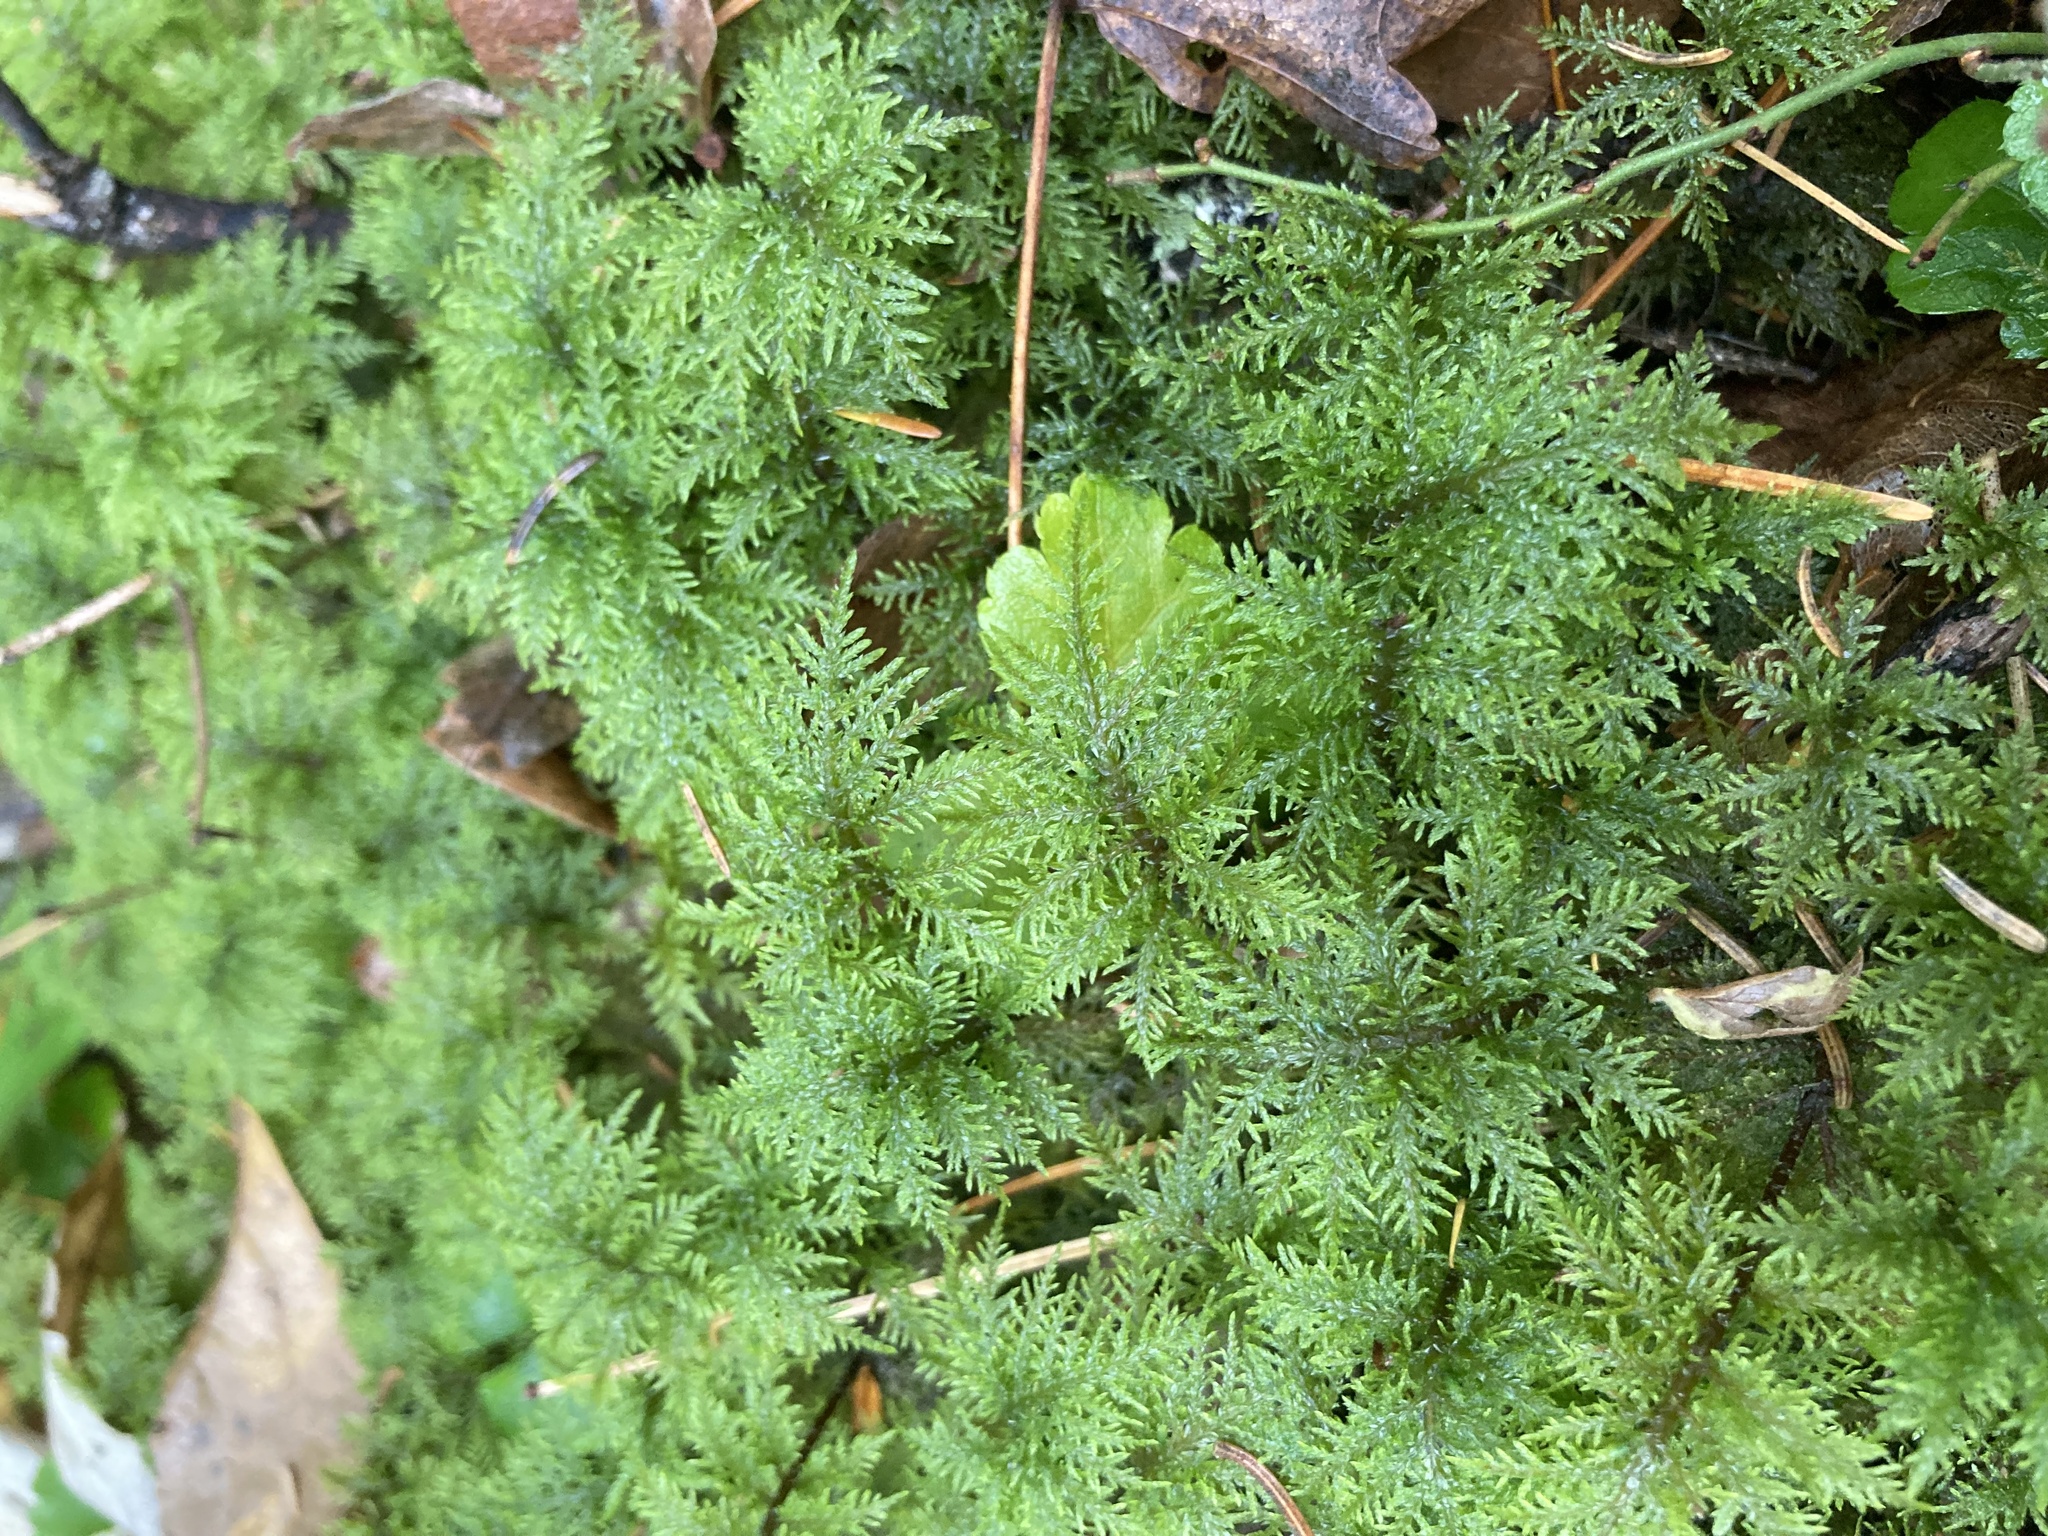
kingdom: Plantae
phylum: Bryophyta
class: Bryopsida
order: Hypnales
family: Hylocomiaceae
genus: Hylocomium
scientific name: Hylocomium splendens
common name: Stairstep moss
